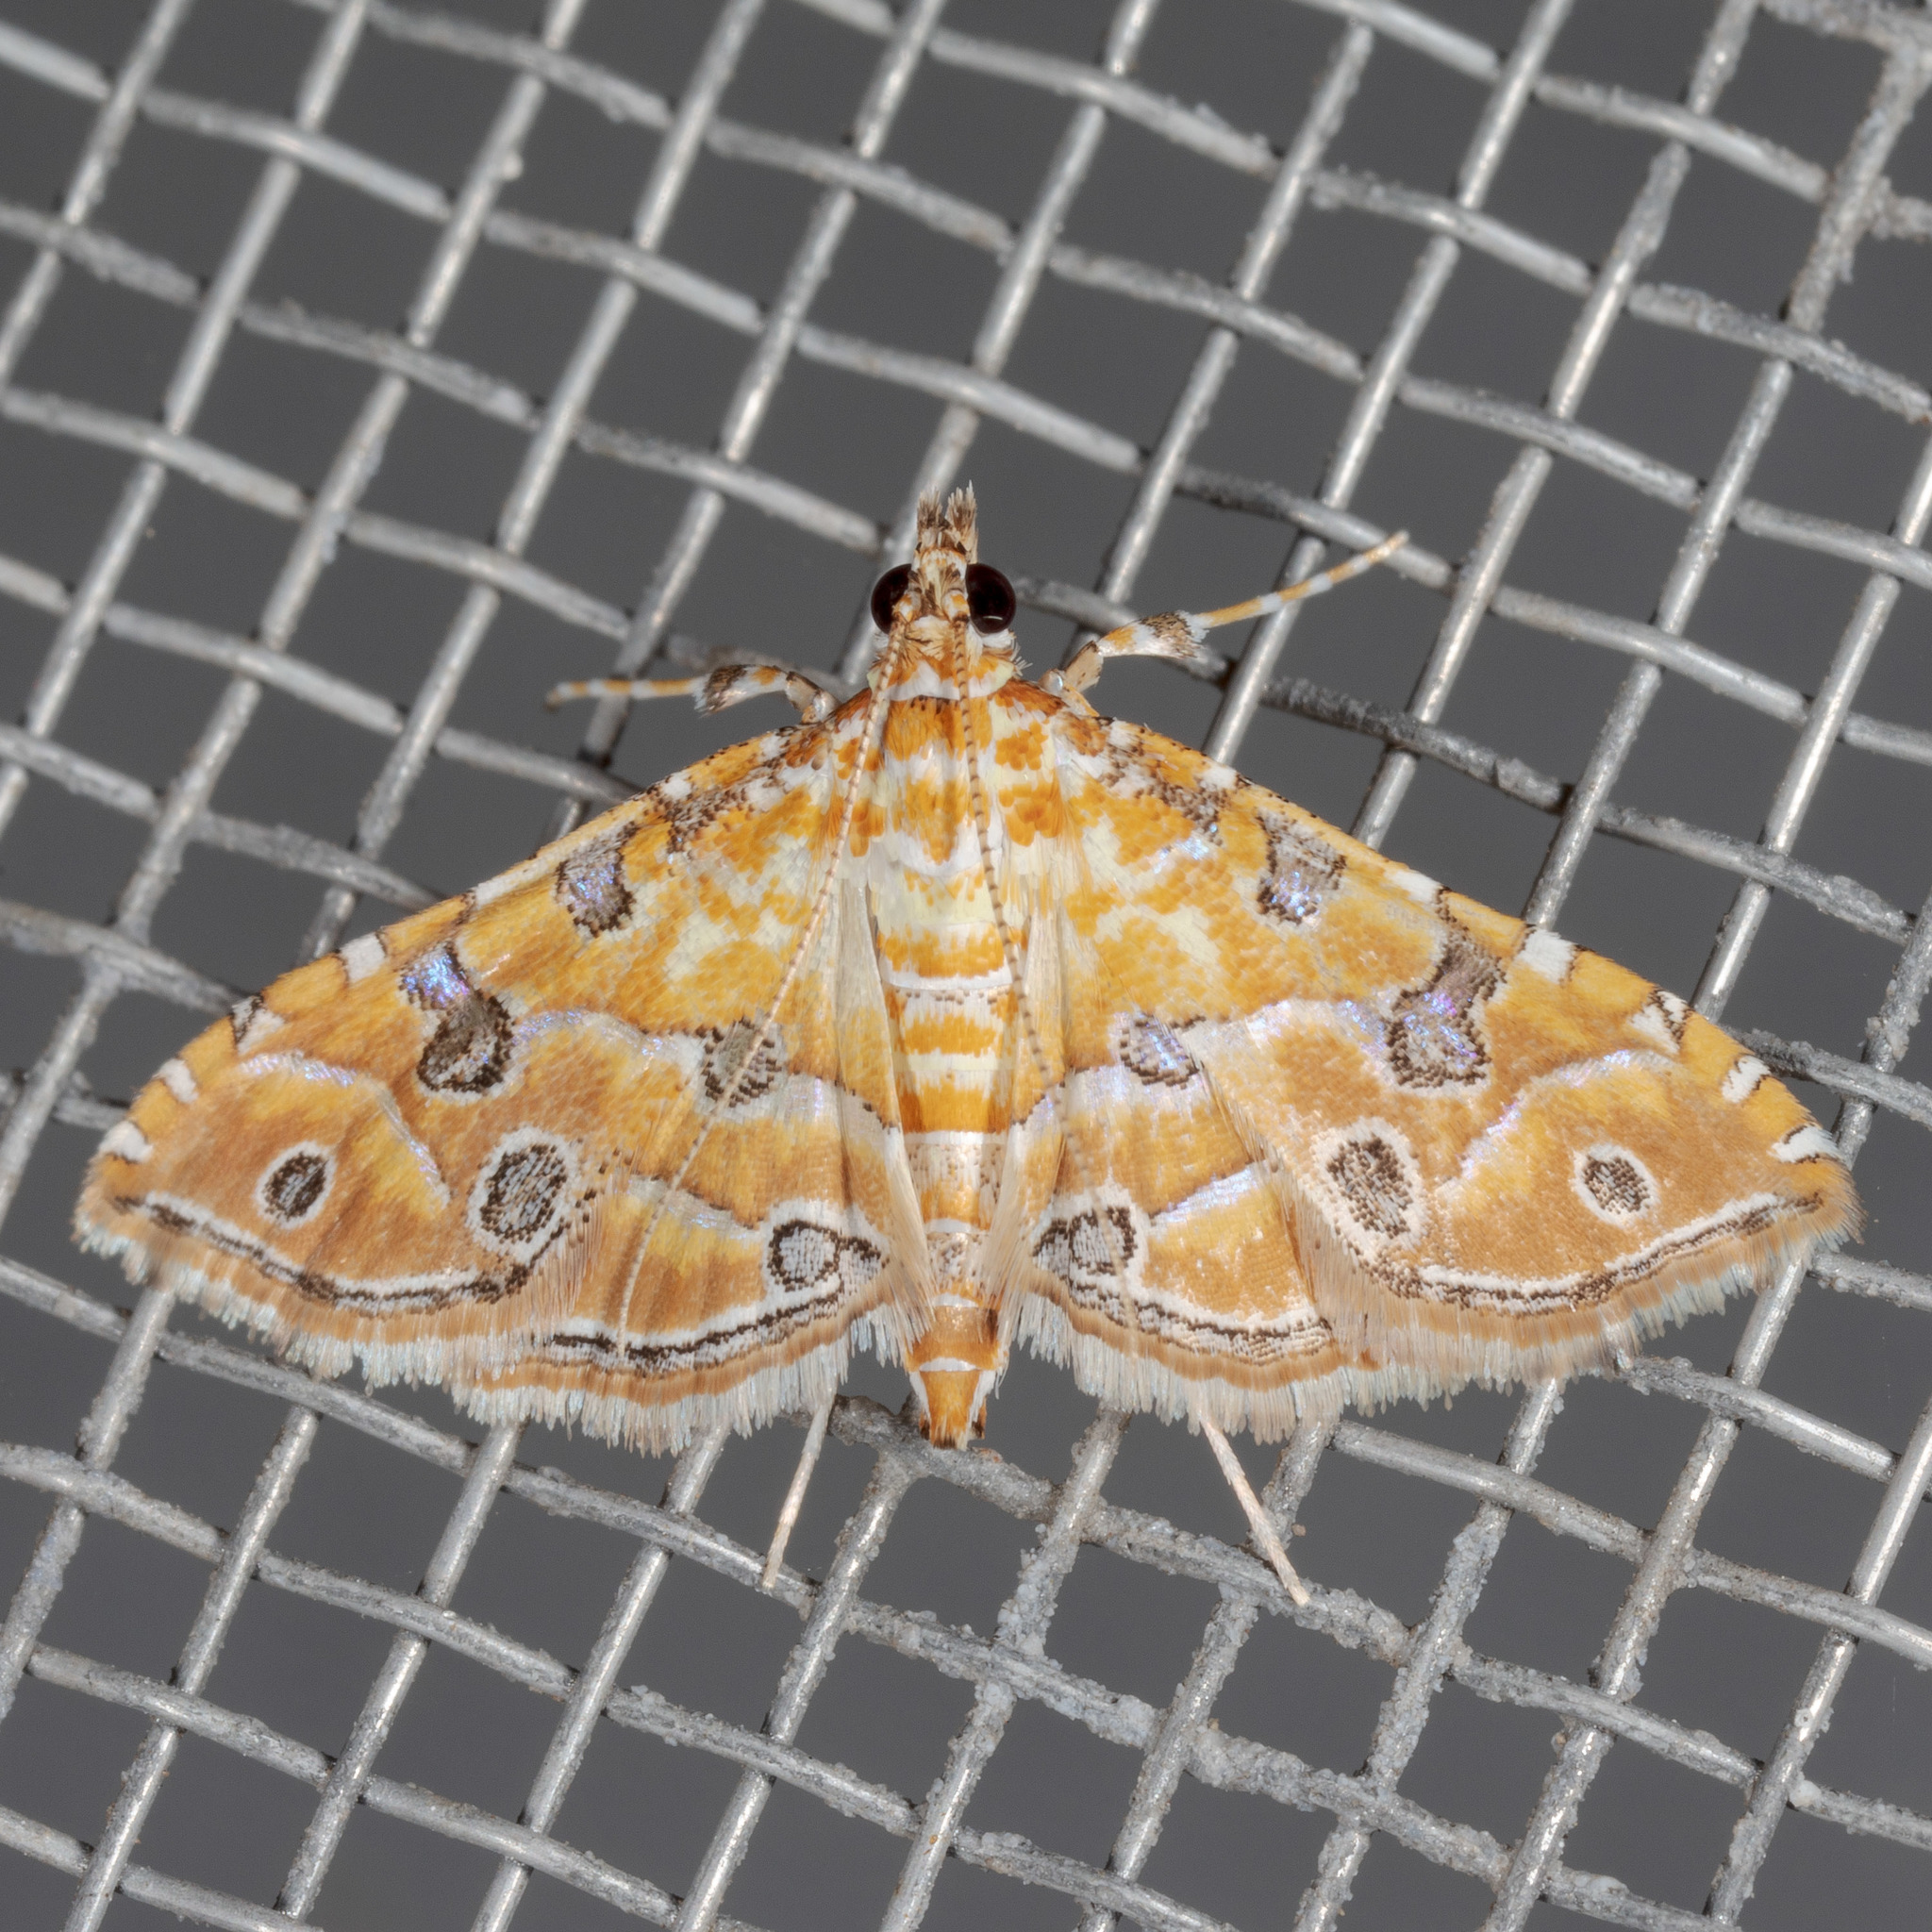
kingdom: Animalia
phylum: Arthropoda
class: Insecta
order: Lepidoptera
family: Crambidae
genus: Ommatospila
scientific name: Ommatospila narcaeusalis
